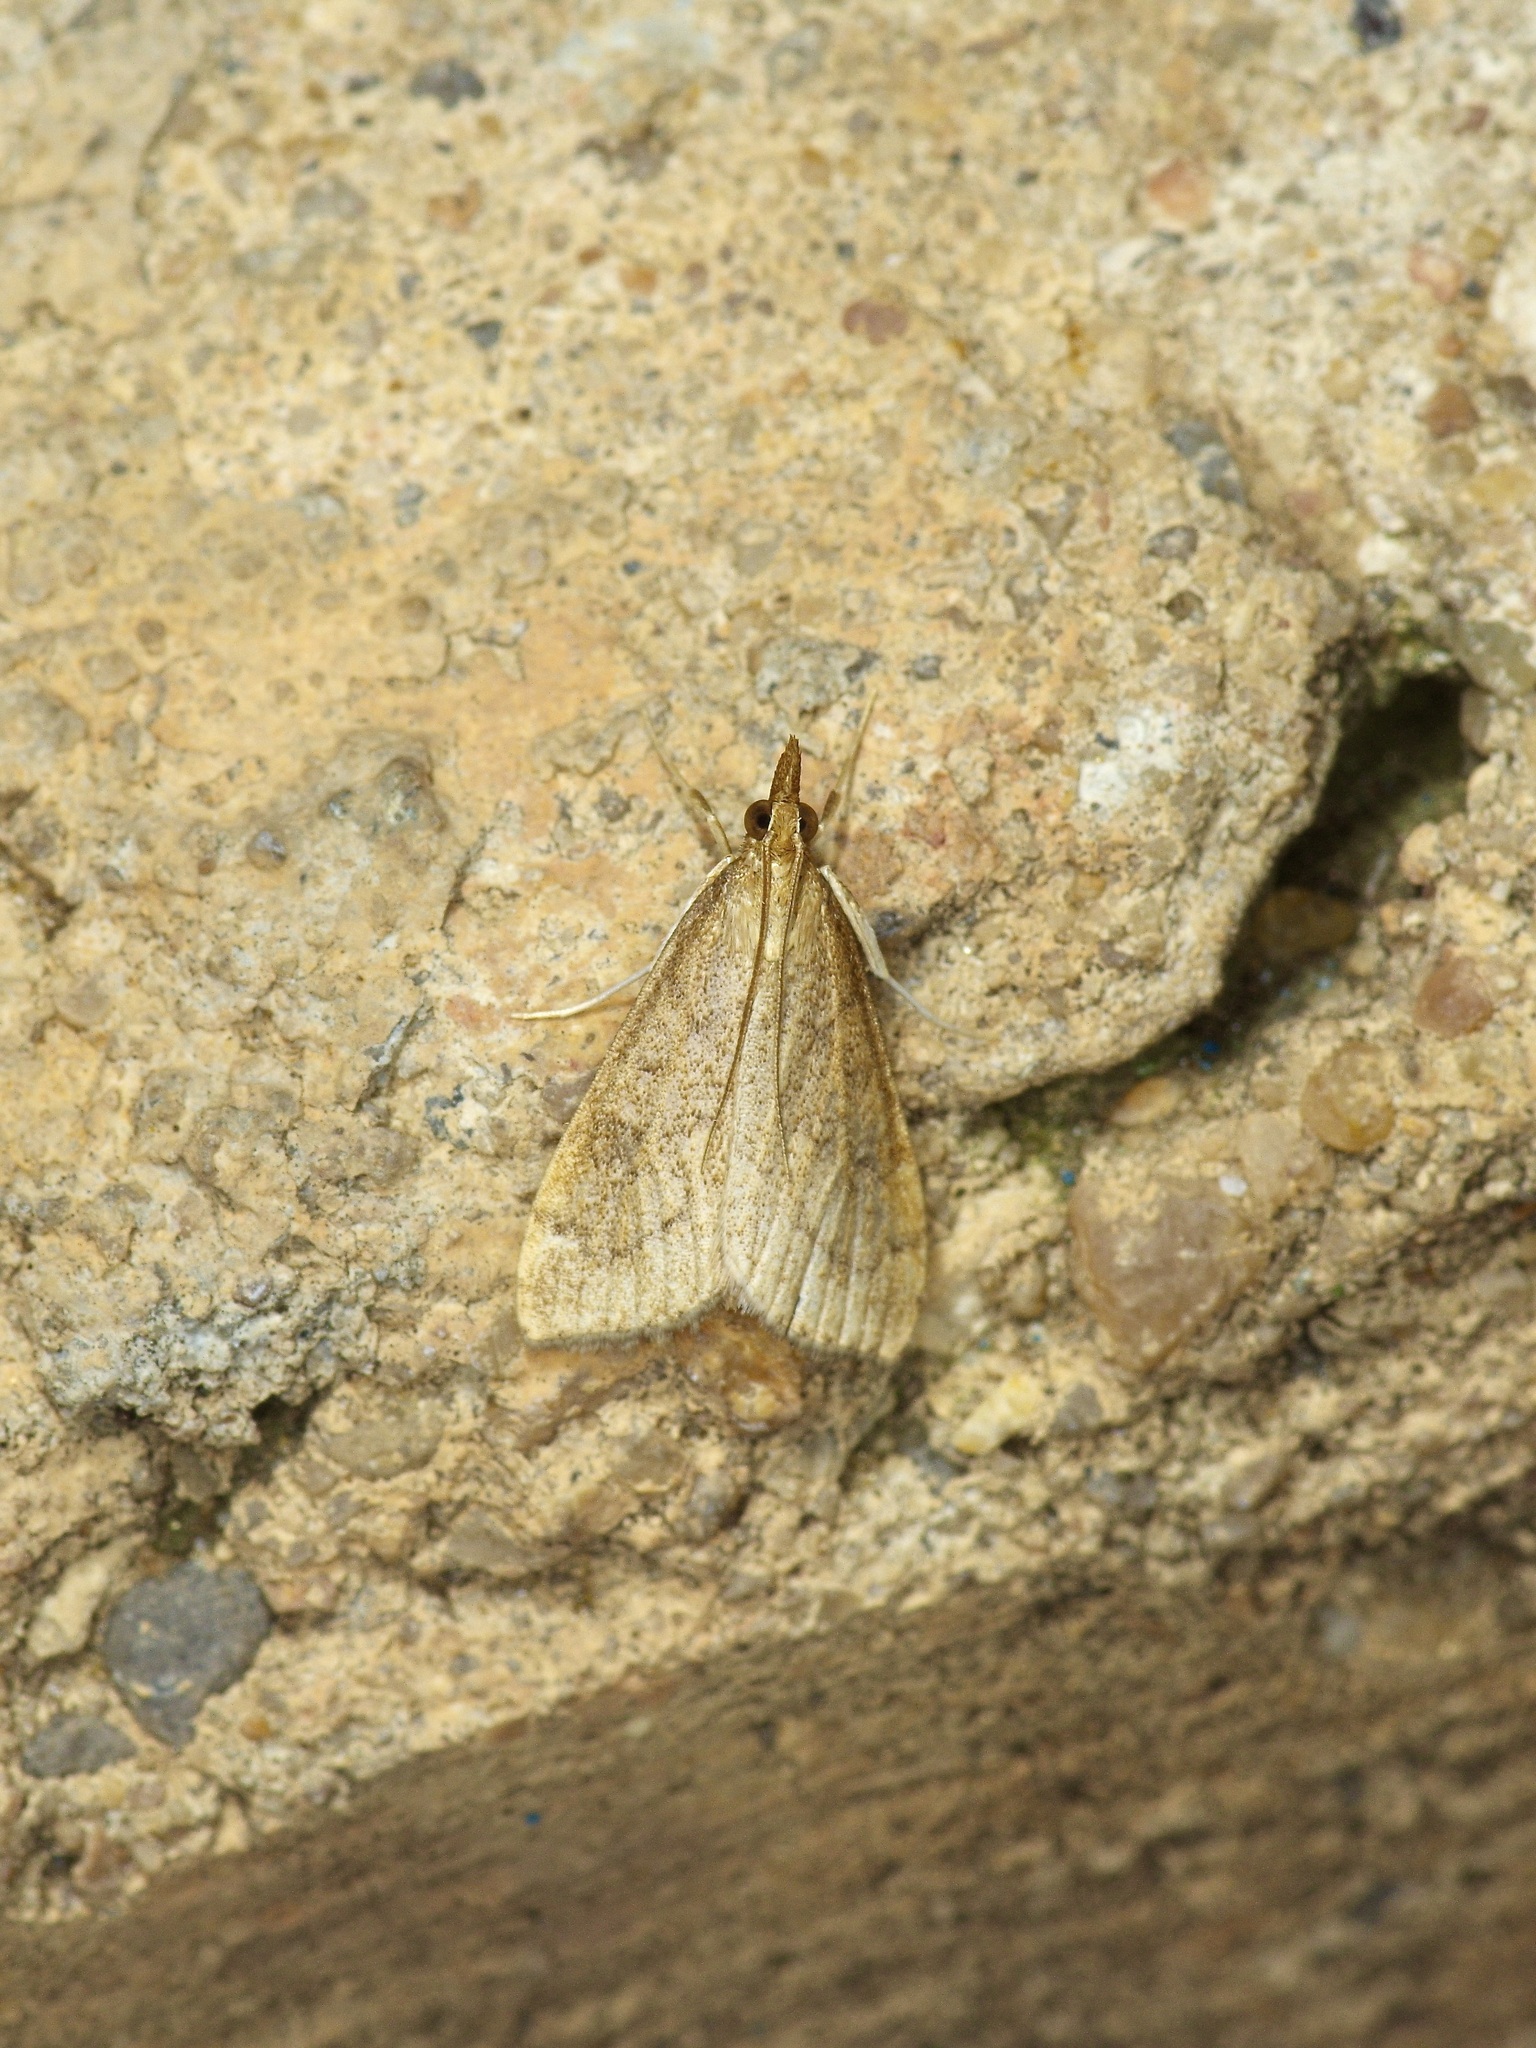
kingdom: Animalia
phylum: Arthropoda
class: Insecta
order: Lepidoptera
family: Crambidae
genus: Udea
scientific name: Udea rubigalis
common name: Celery leaftier moth
